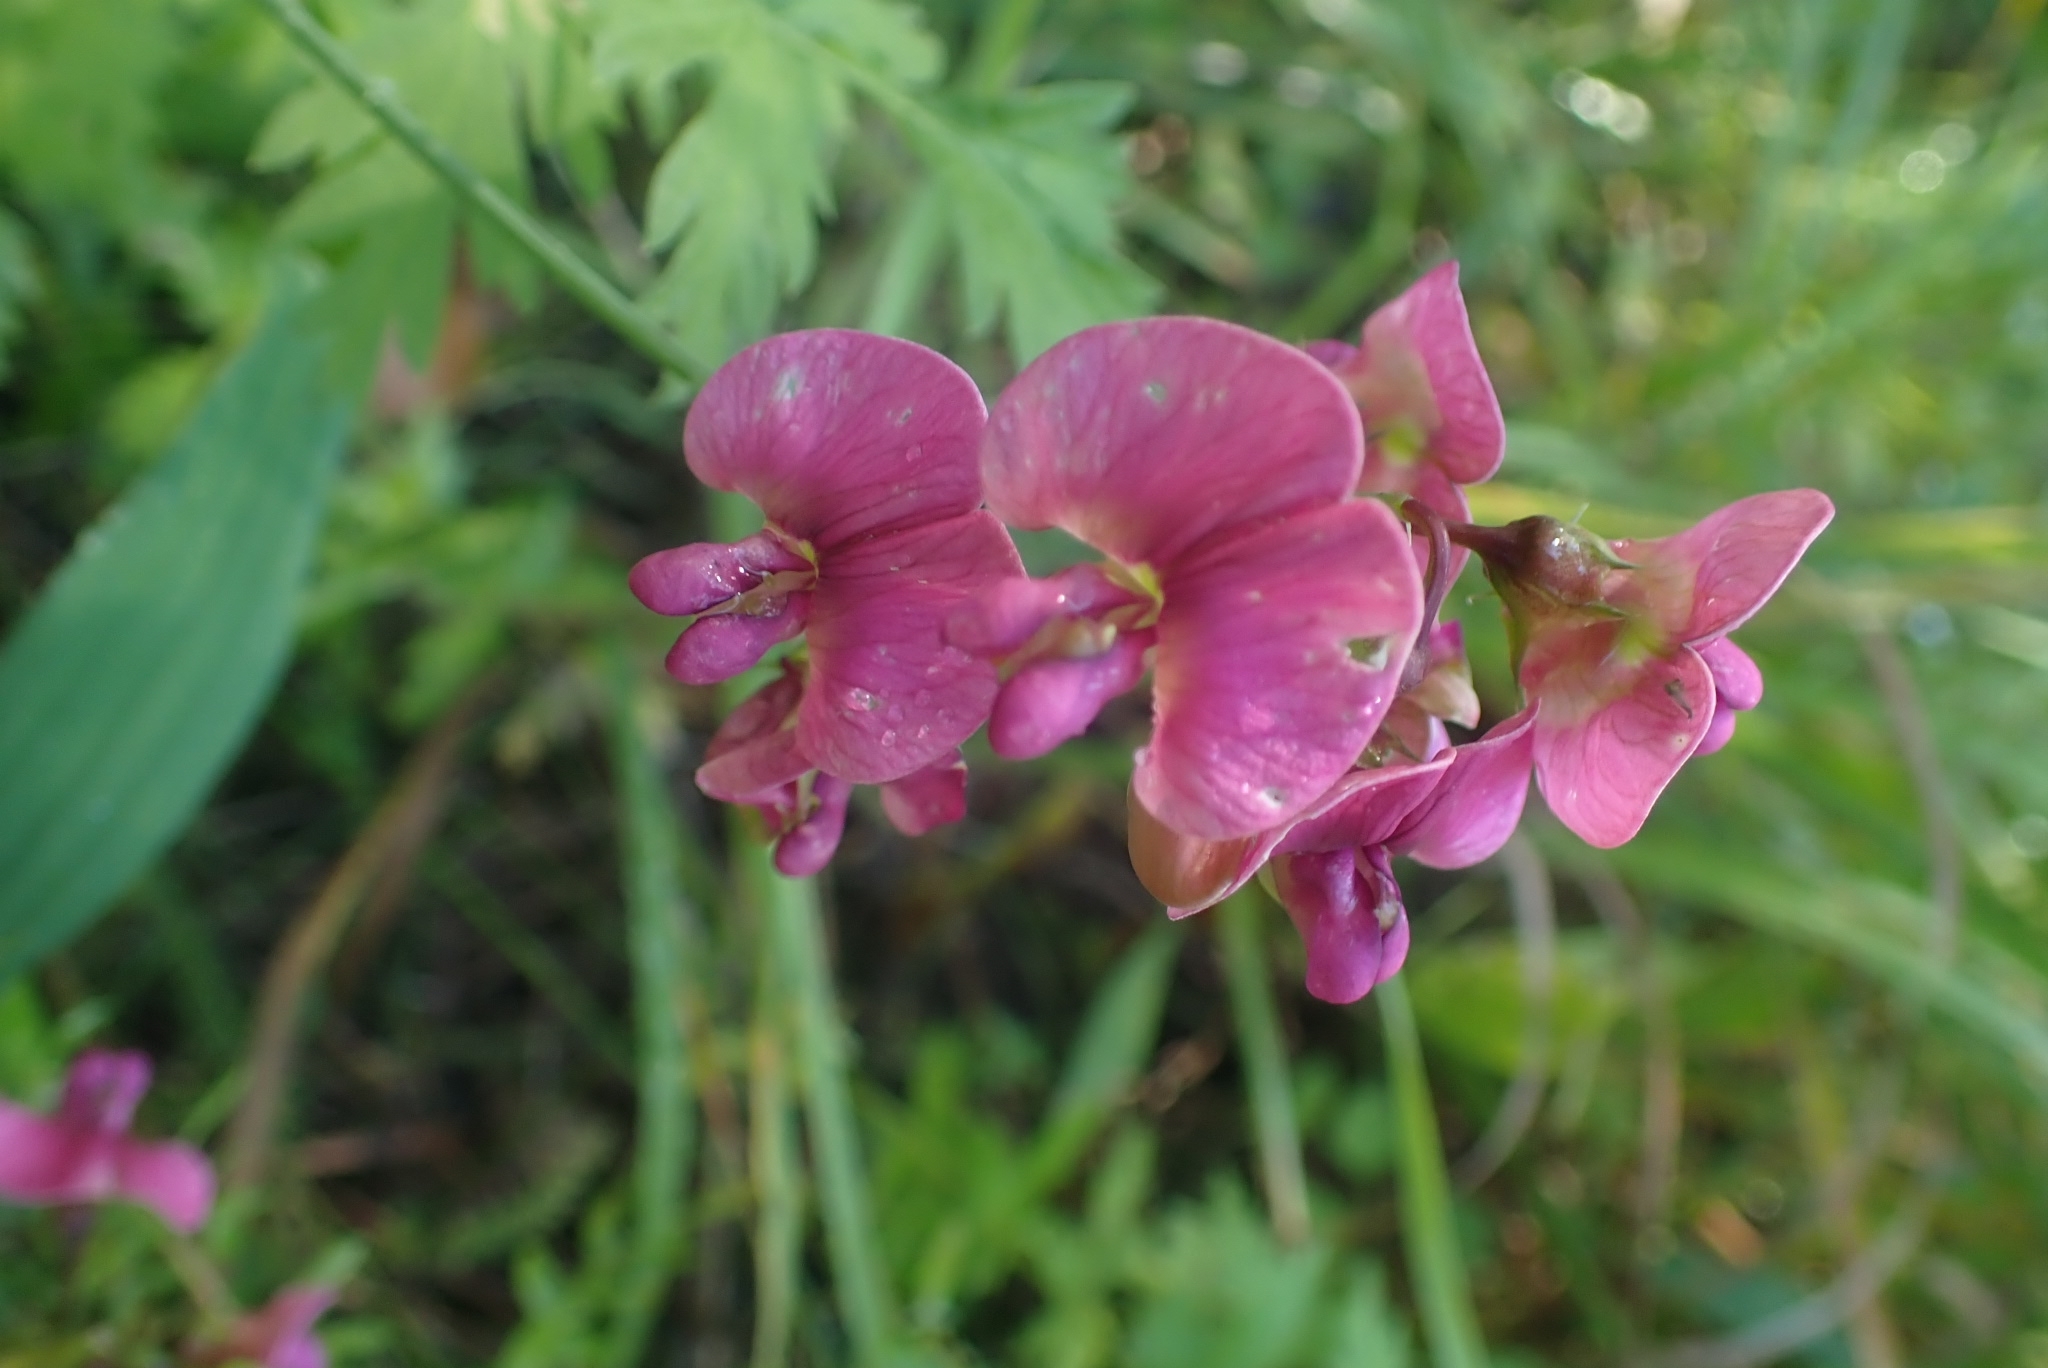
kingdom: Plantae
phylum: Tracheophyta
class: Magnoliopsida
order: Fabales
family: Fabaceae
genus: Lathyrus
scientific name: Lathyrus sylvestris
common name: Flat pea
